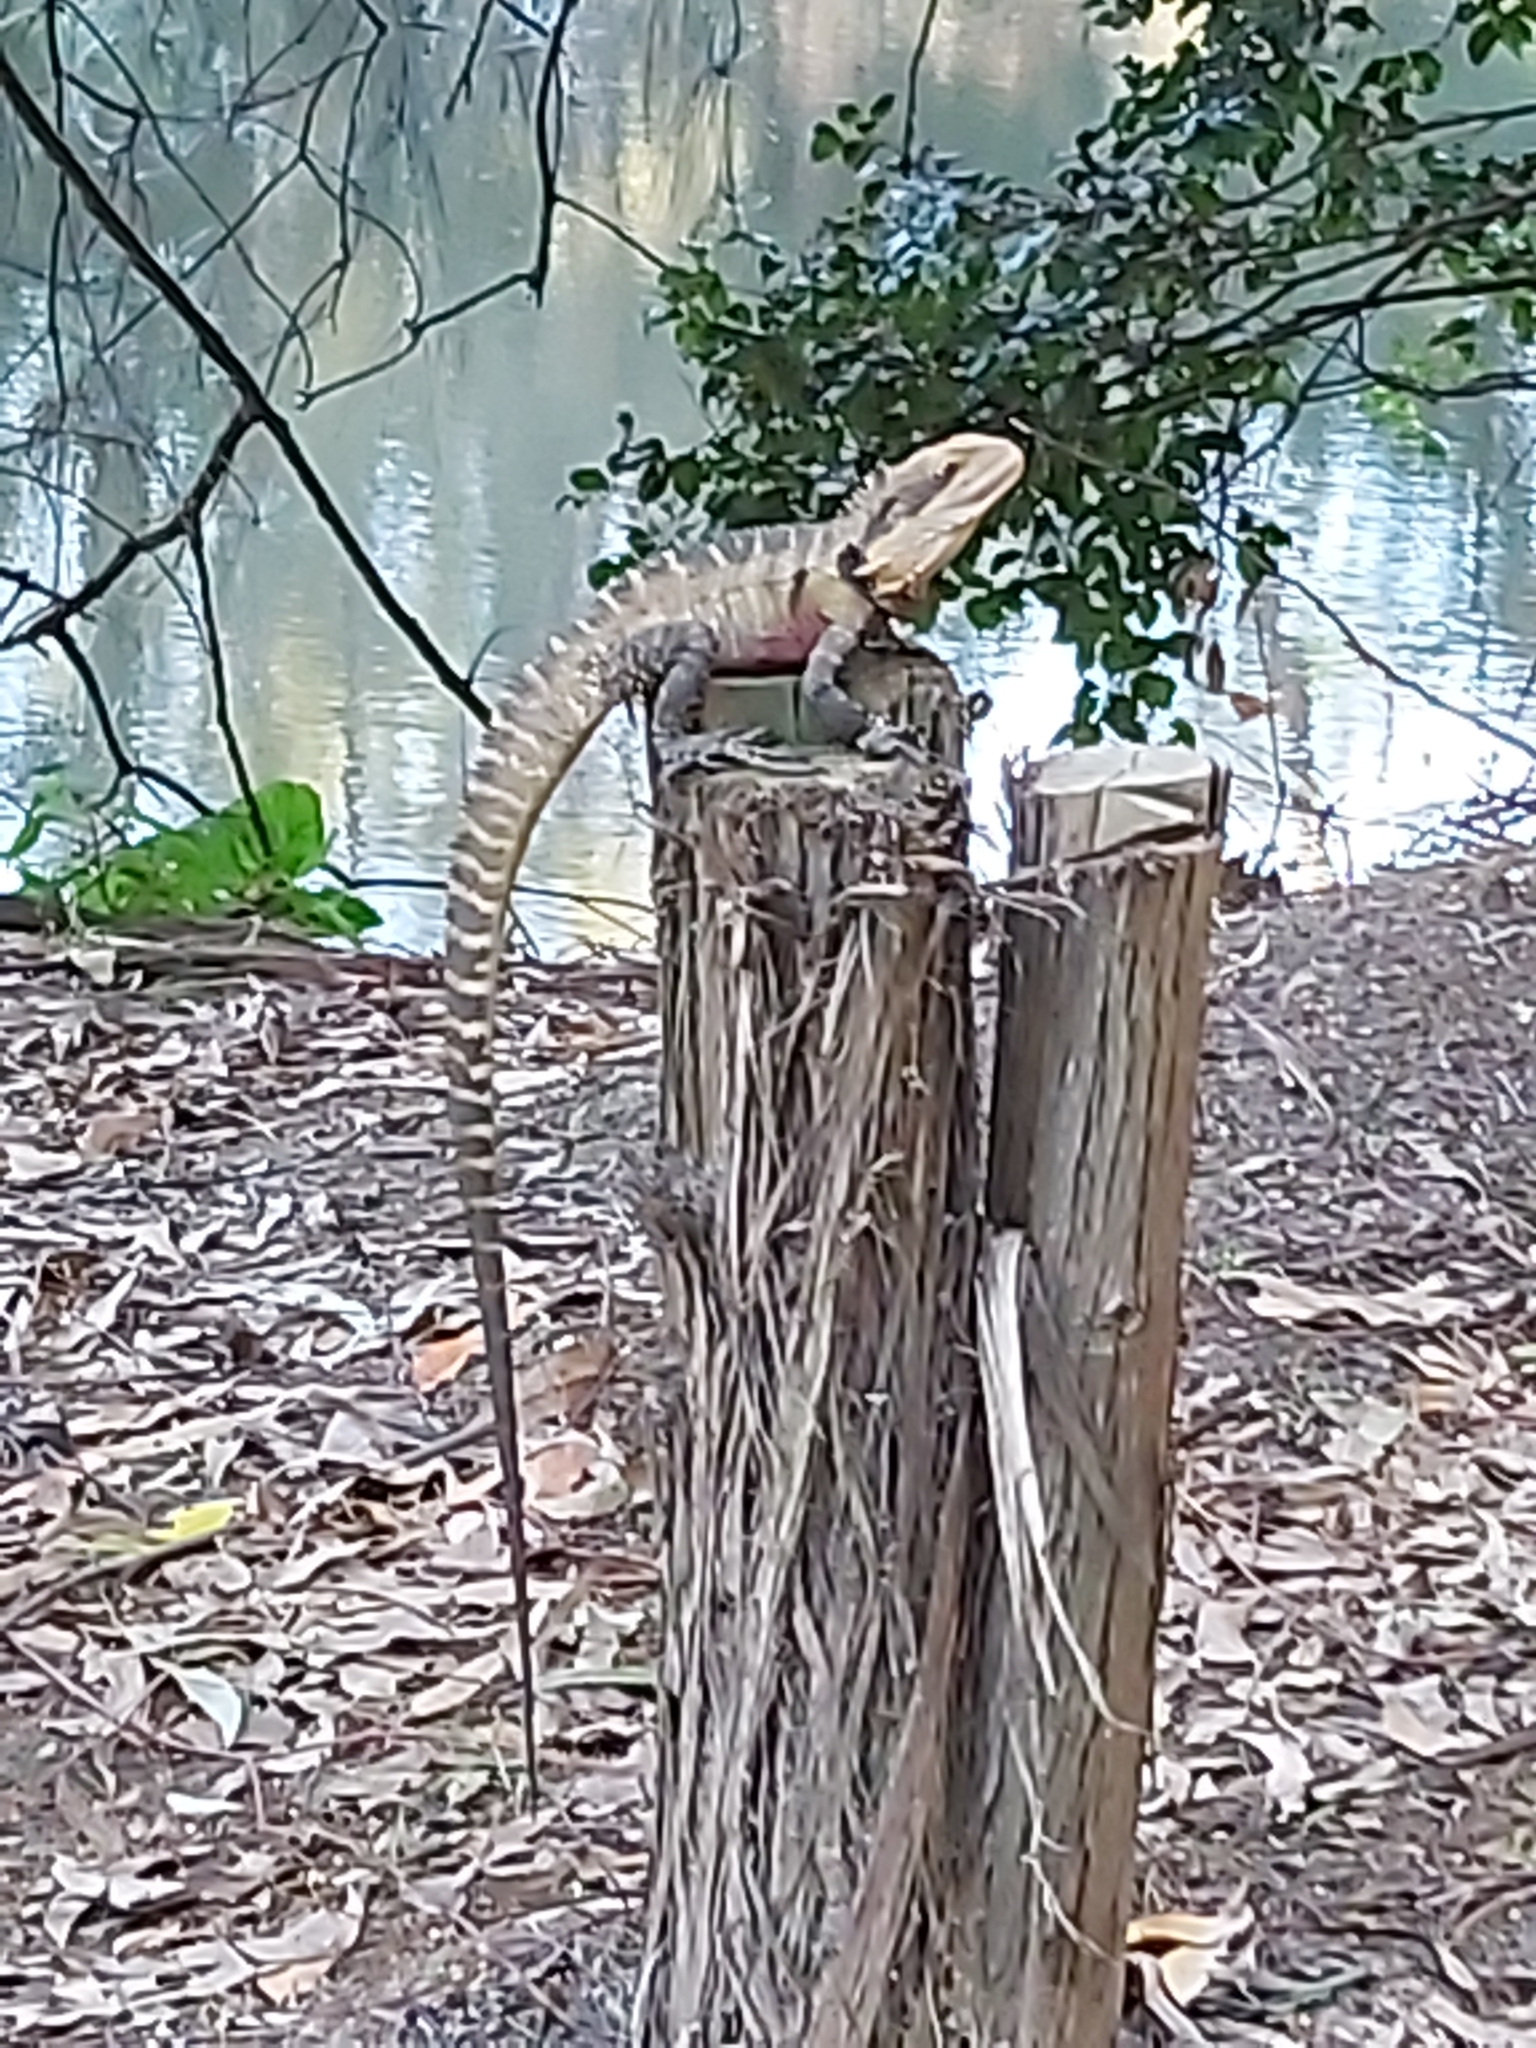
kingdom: Animalia
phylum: Chordata
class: Squamata
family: Agamidae
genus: Intellagama
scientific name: Intellagama lesueurii
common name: Eastern water dragon
